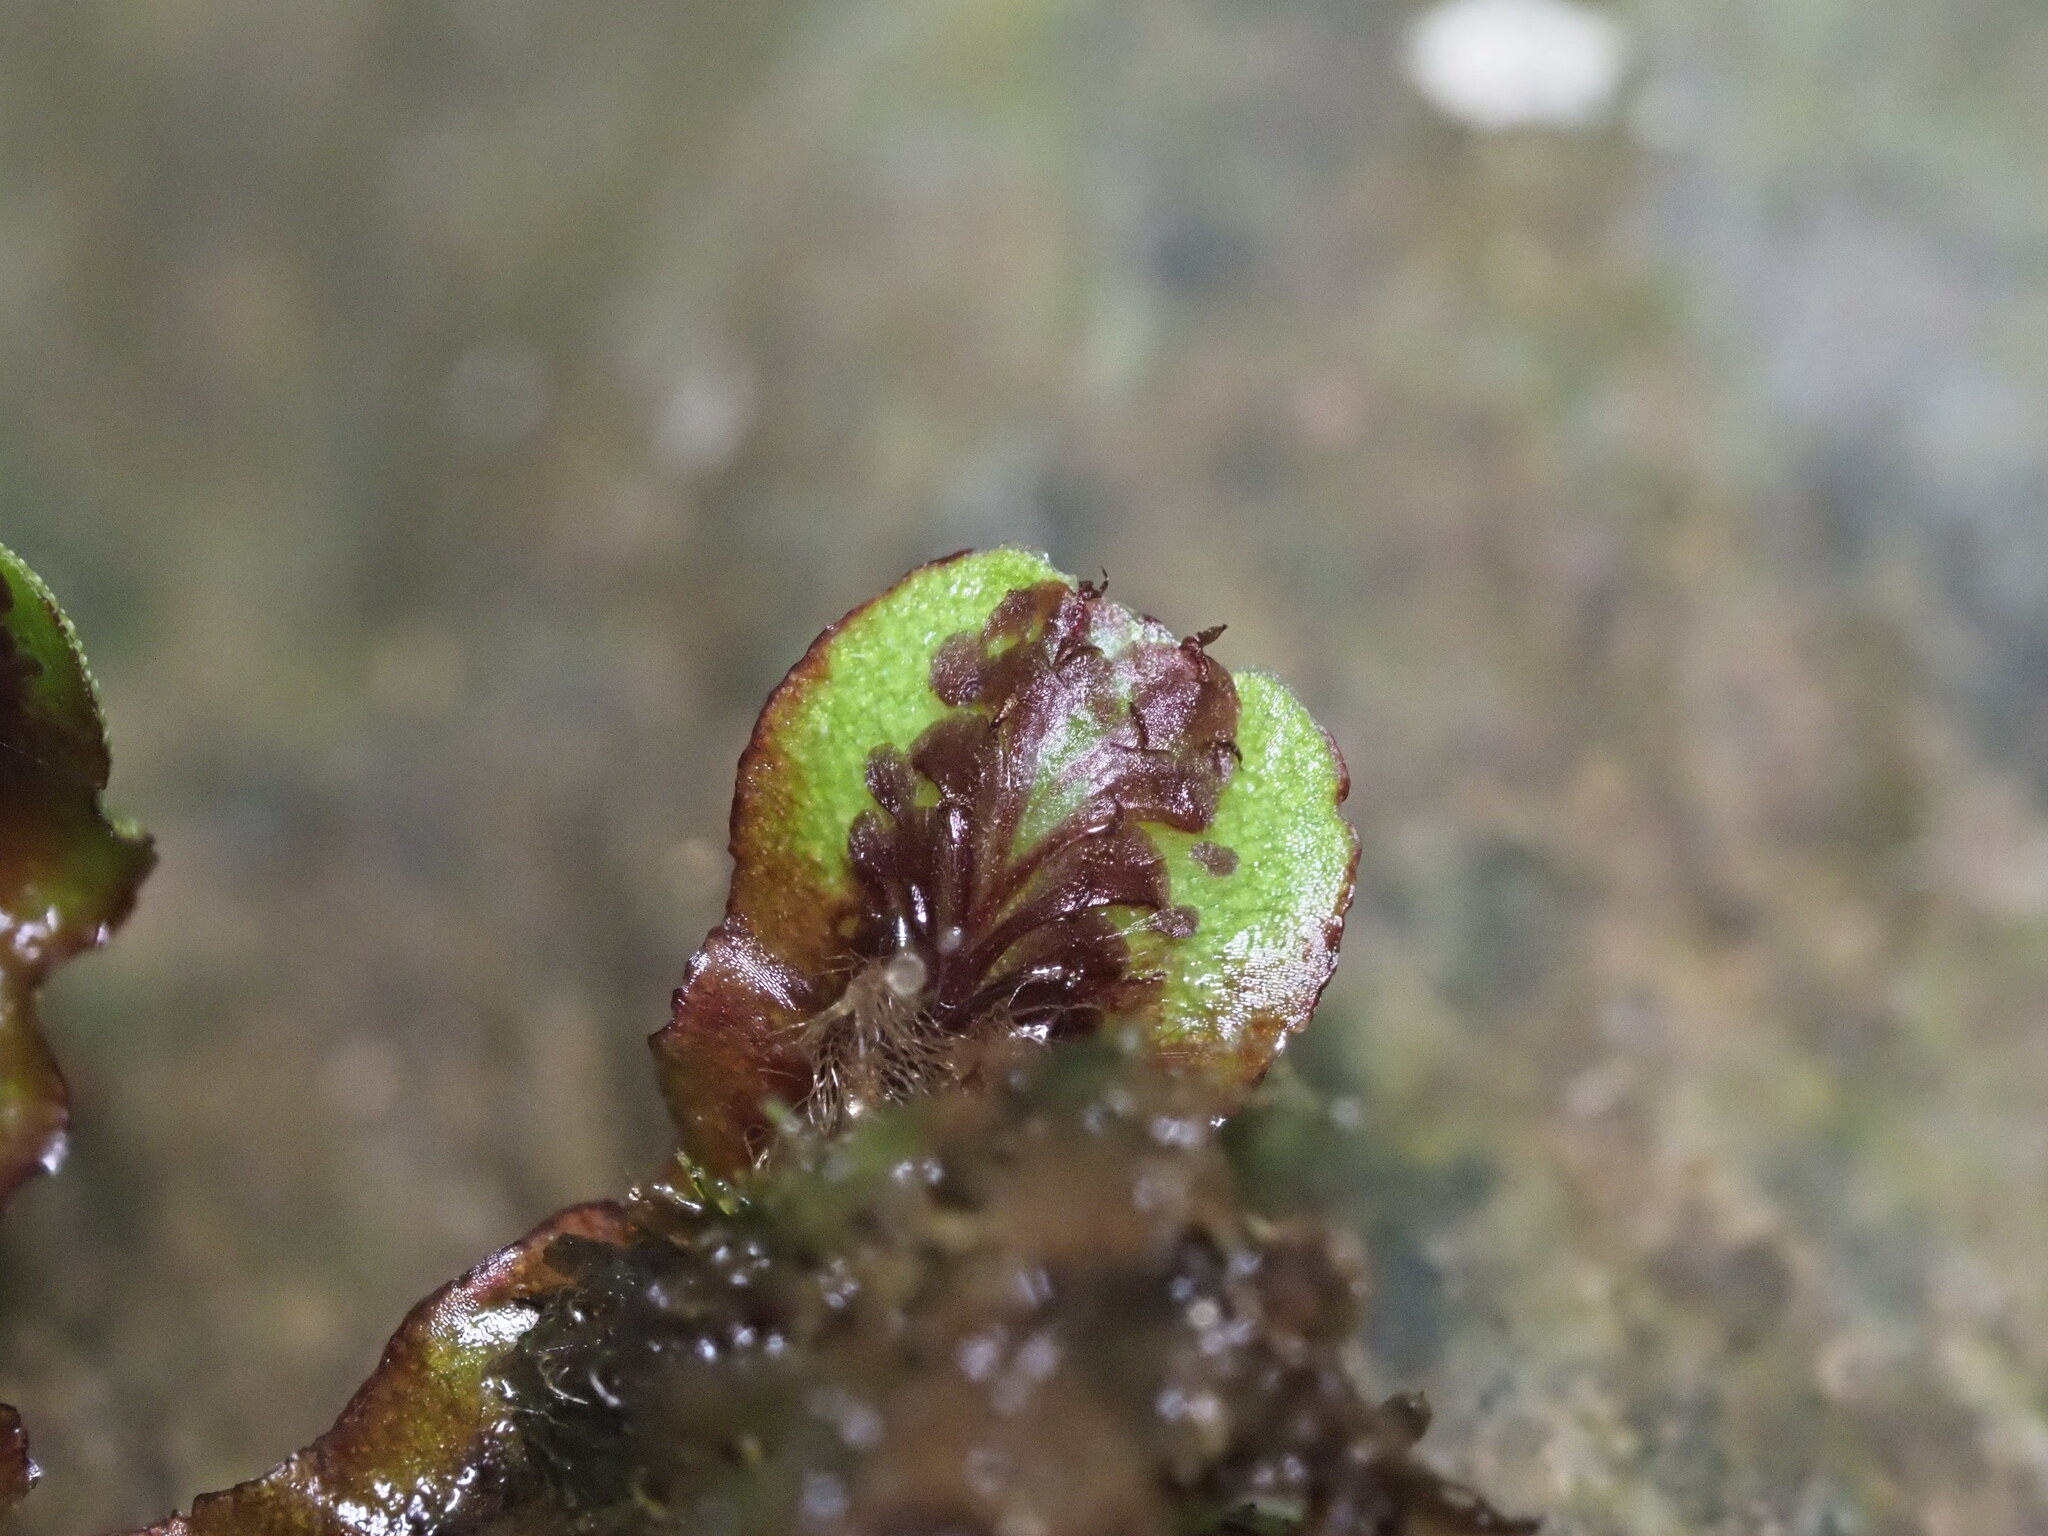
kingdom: Plantae
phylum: Marchantiophyta
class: Marchantiopsida
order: Marchantiales
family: Marchantiaceae
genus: Marchantia
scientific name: Marchantia antiqua
